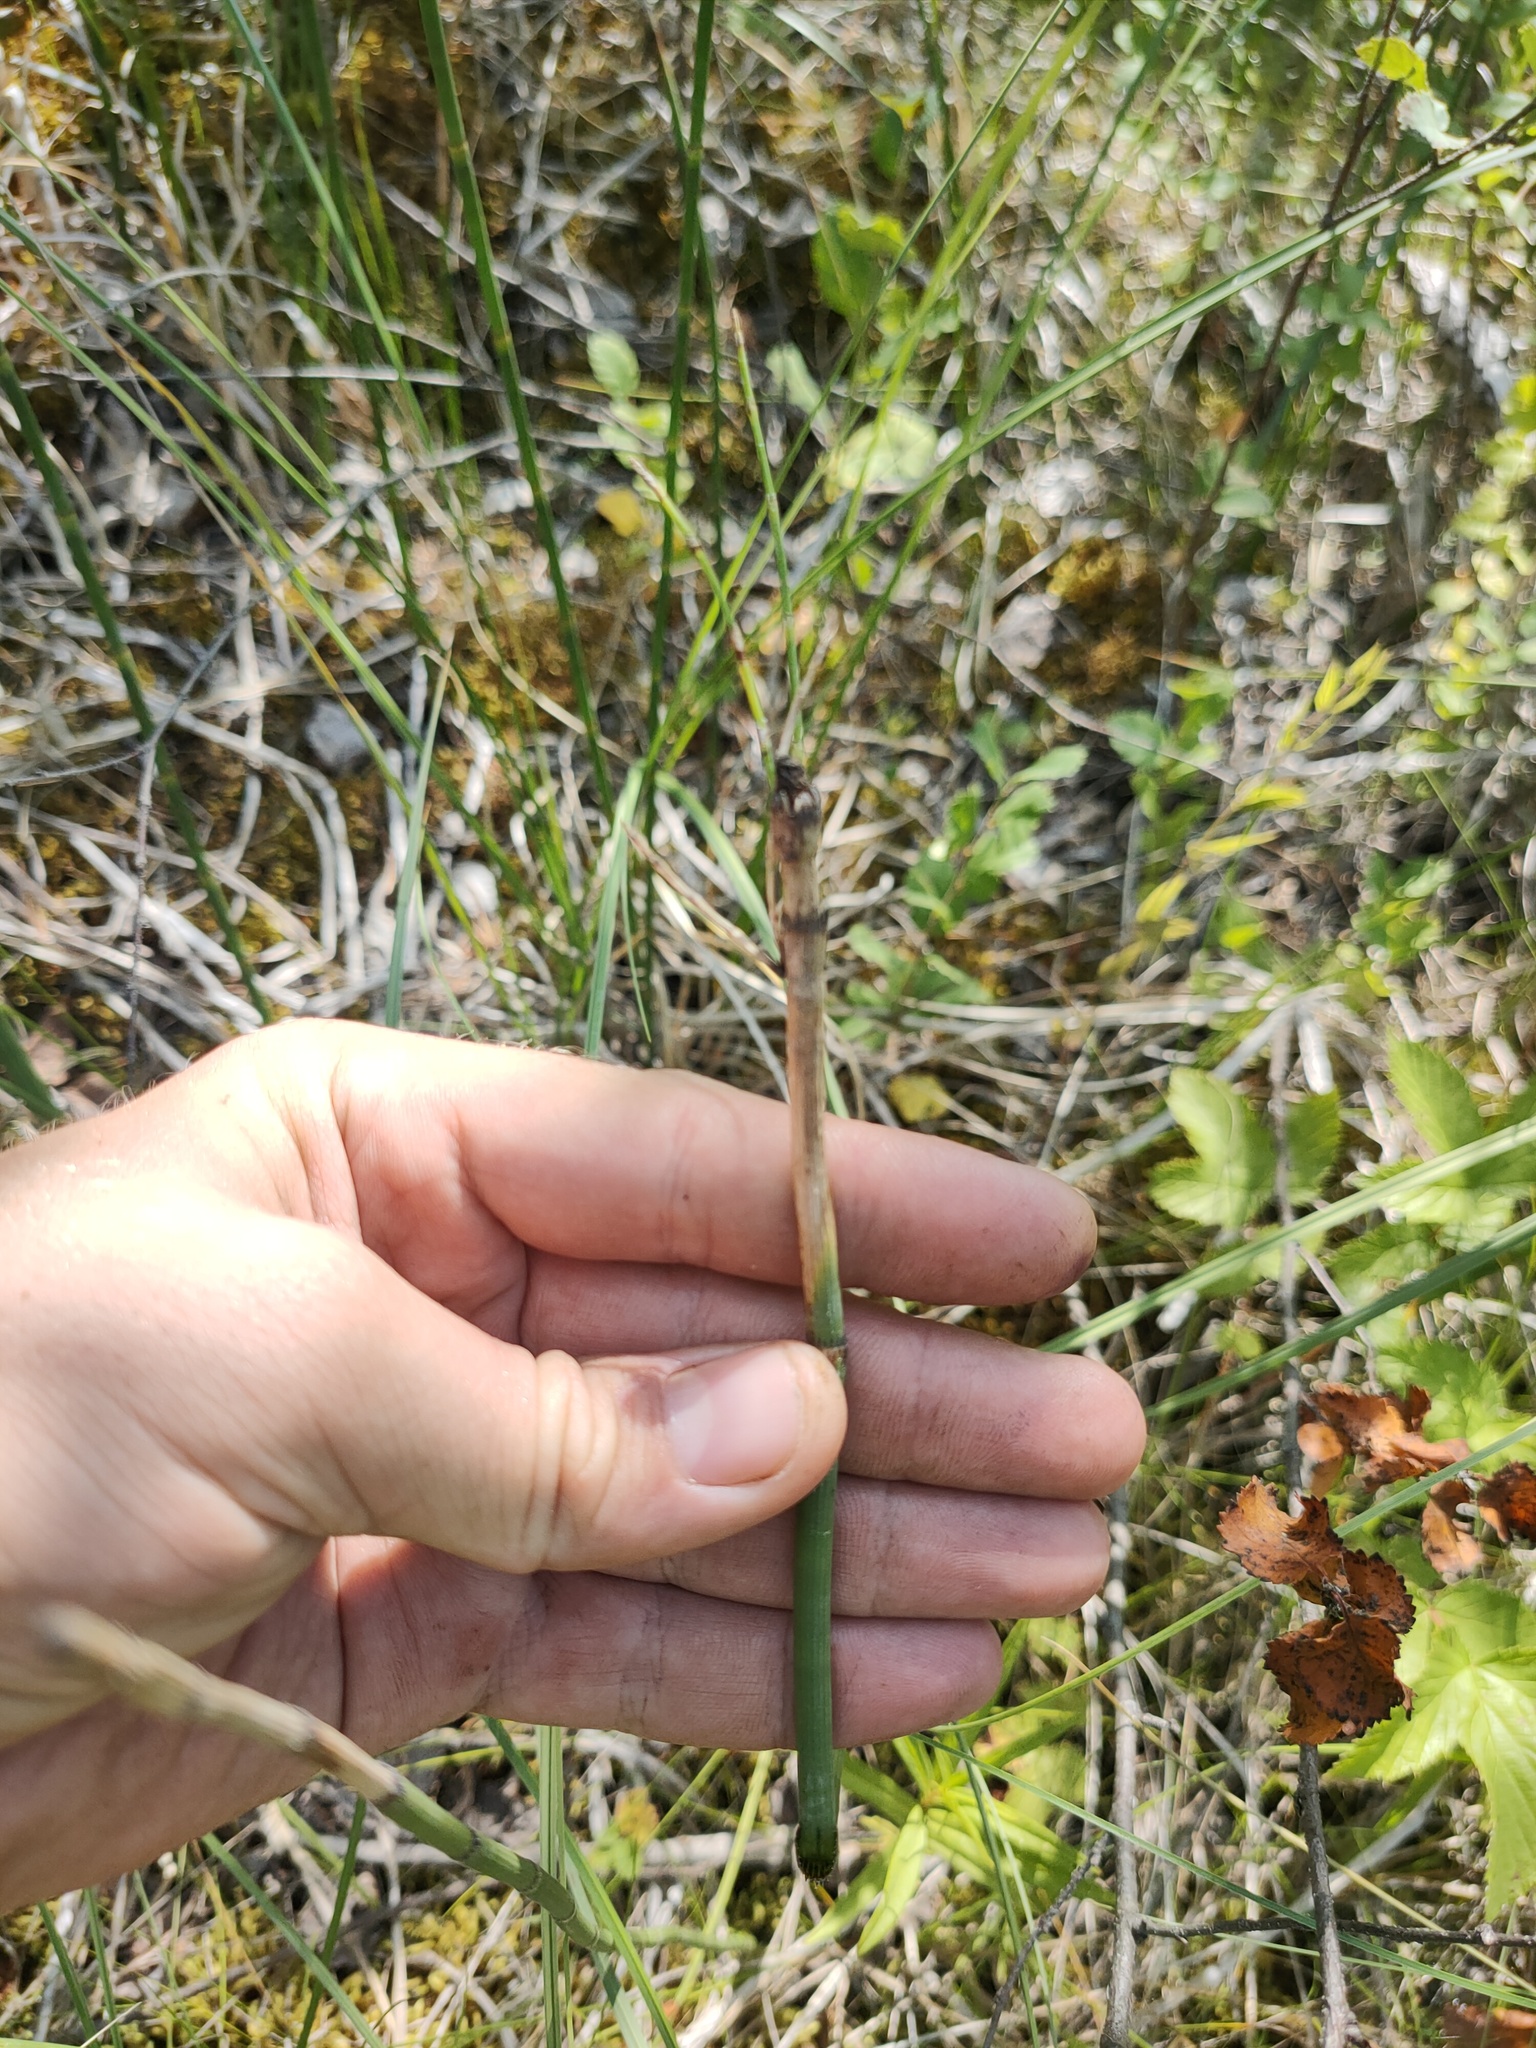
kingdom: Plantae
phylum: Tracheophyta
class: Polypodiopsida
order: Equisetales
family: Equisetaceae
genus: Equisetum
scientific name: Equisetum hyemale
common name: Rough horsetail
